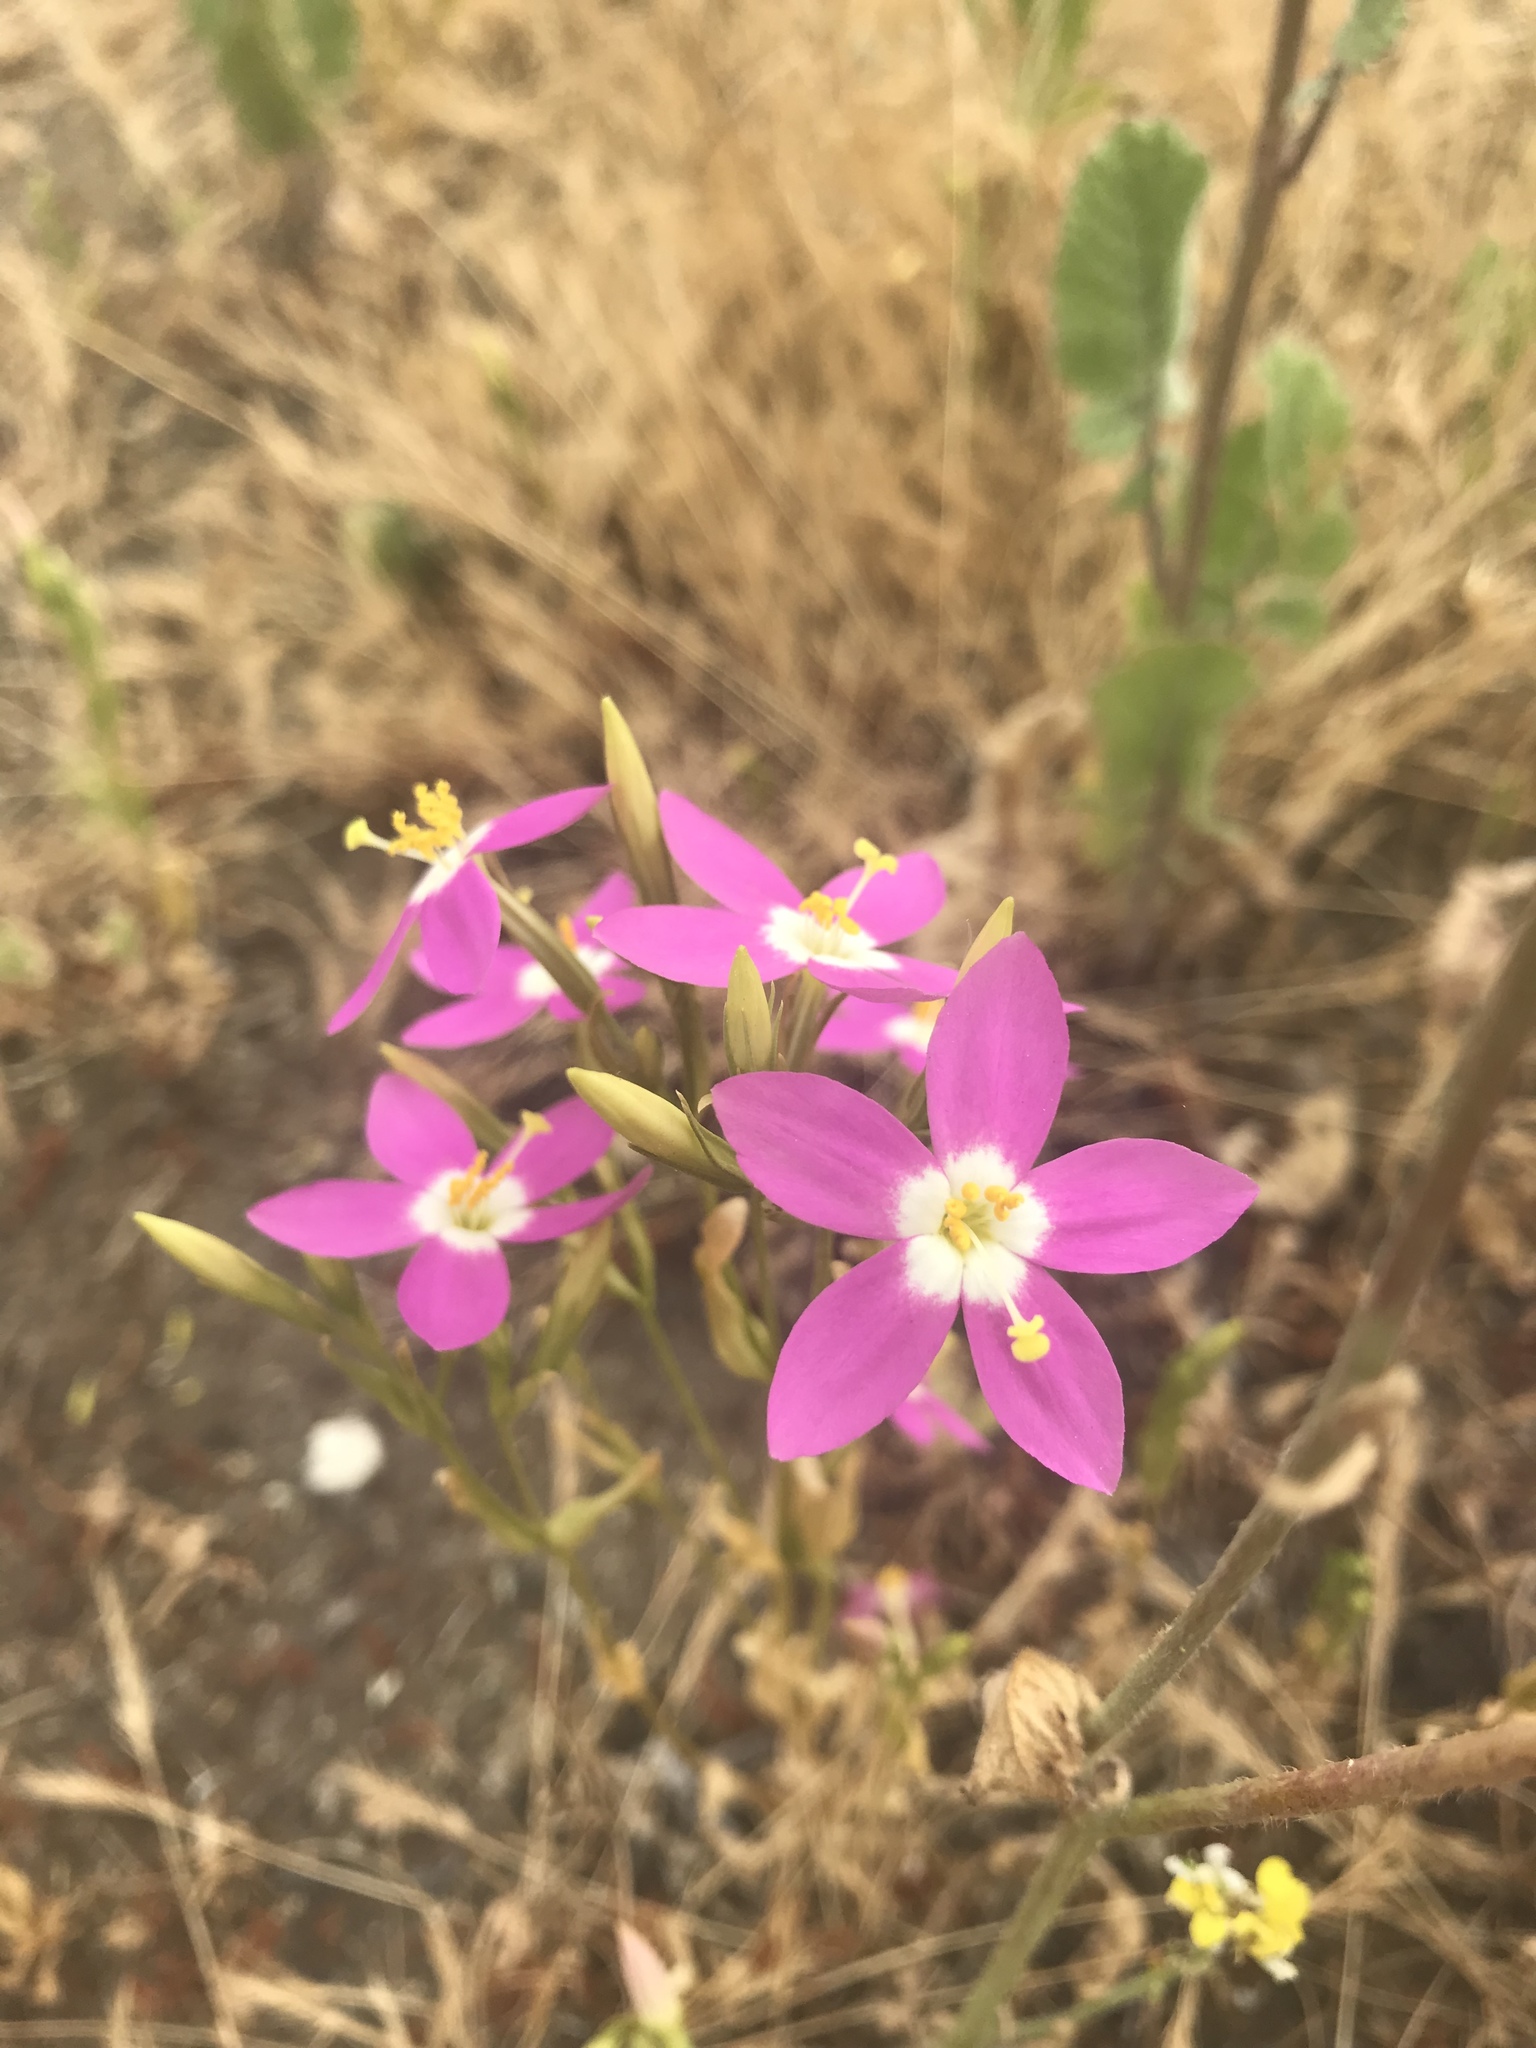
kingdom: Plantae
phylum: Tracheophyta
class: Magnoliopsida
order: Gentianales
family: Gentianaceae
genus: Zeltnera
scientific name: Zeltnera venusta
